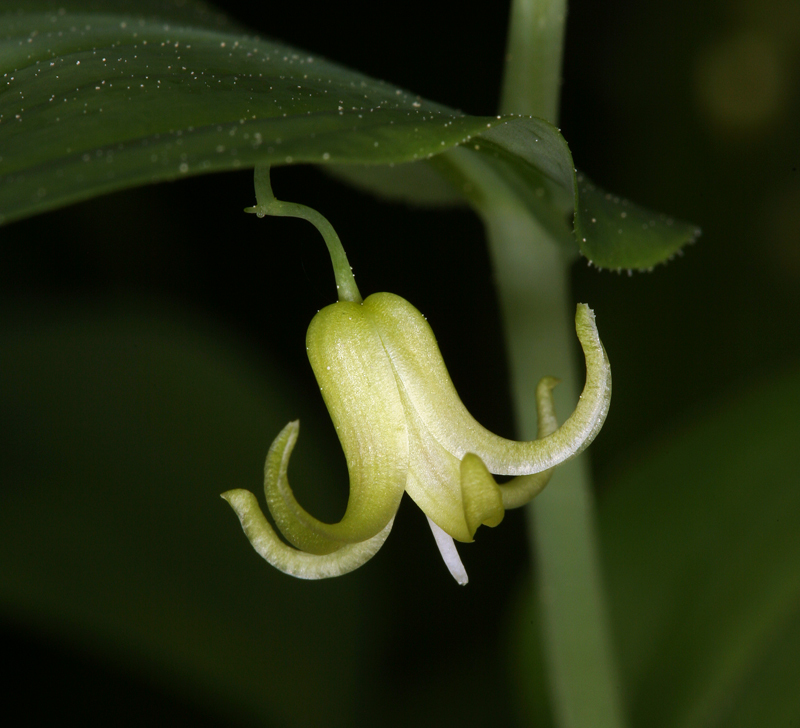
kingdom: Plantae
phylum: Tracheophyta
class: Liliopsida
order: Liliales
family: Liliaceae
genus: Streptopus
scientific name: Streptopus amplexifolius
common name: Clasp twisted stalk
